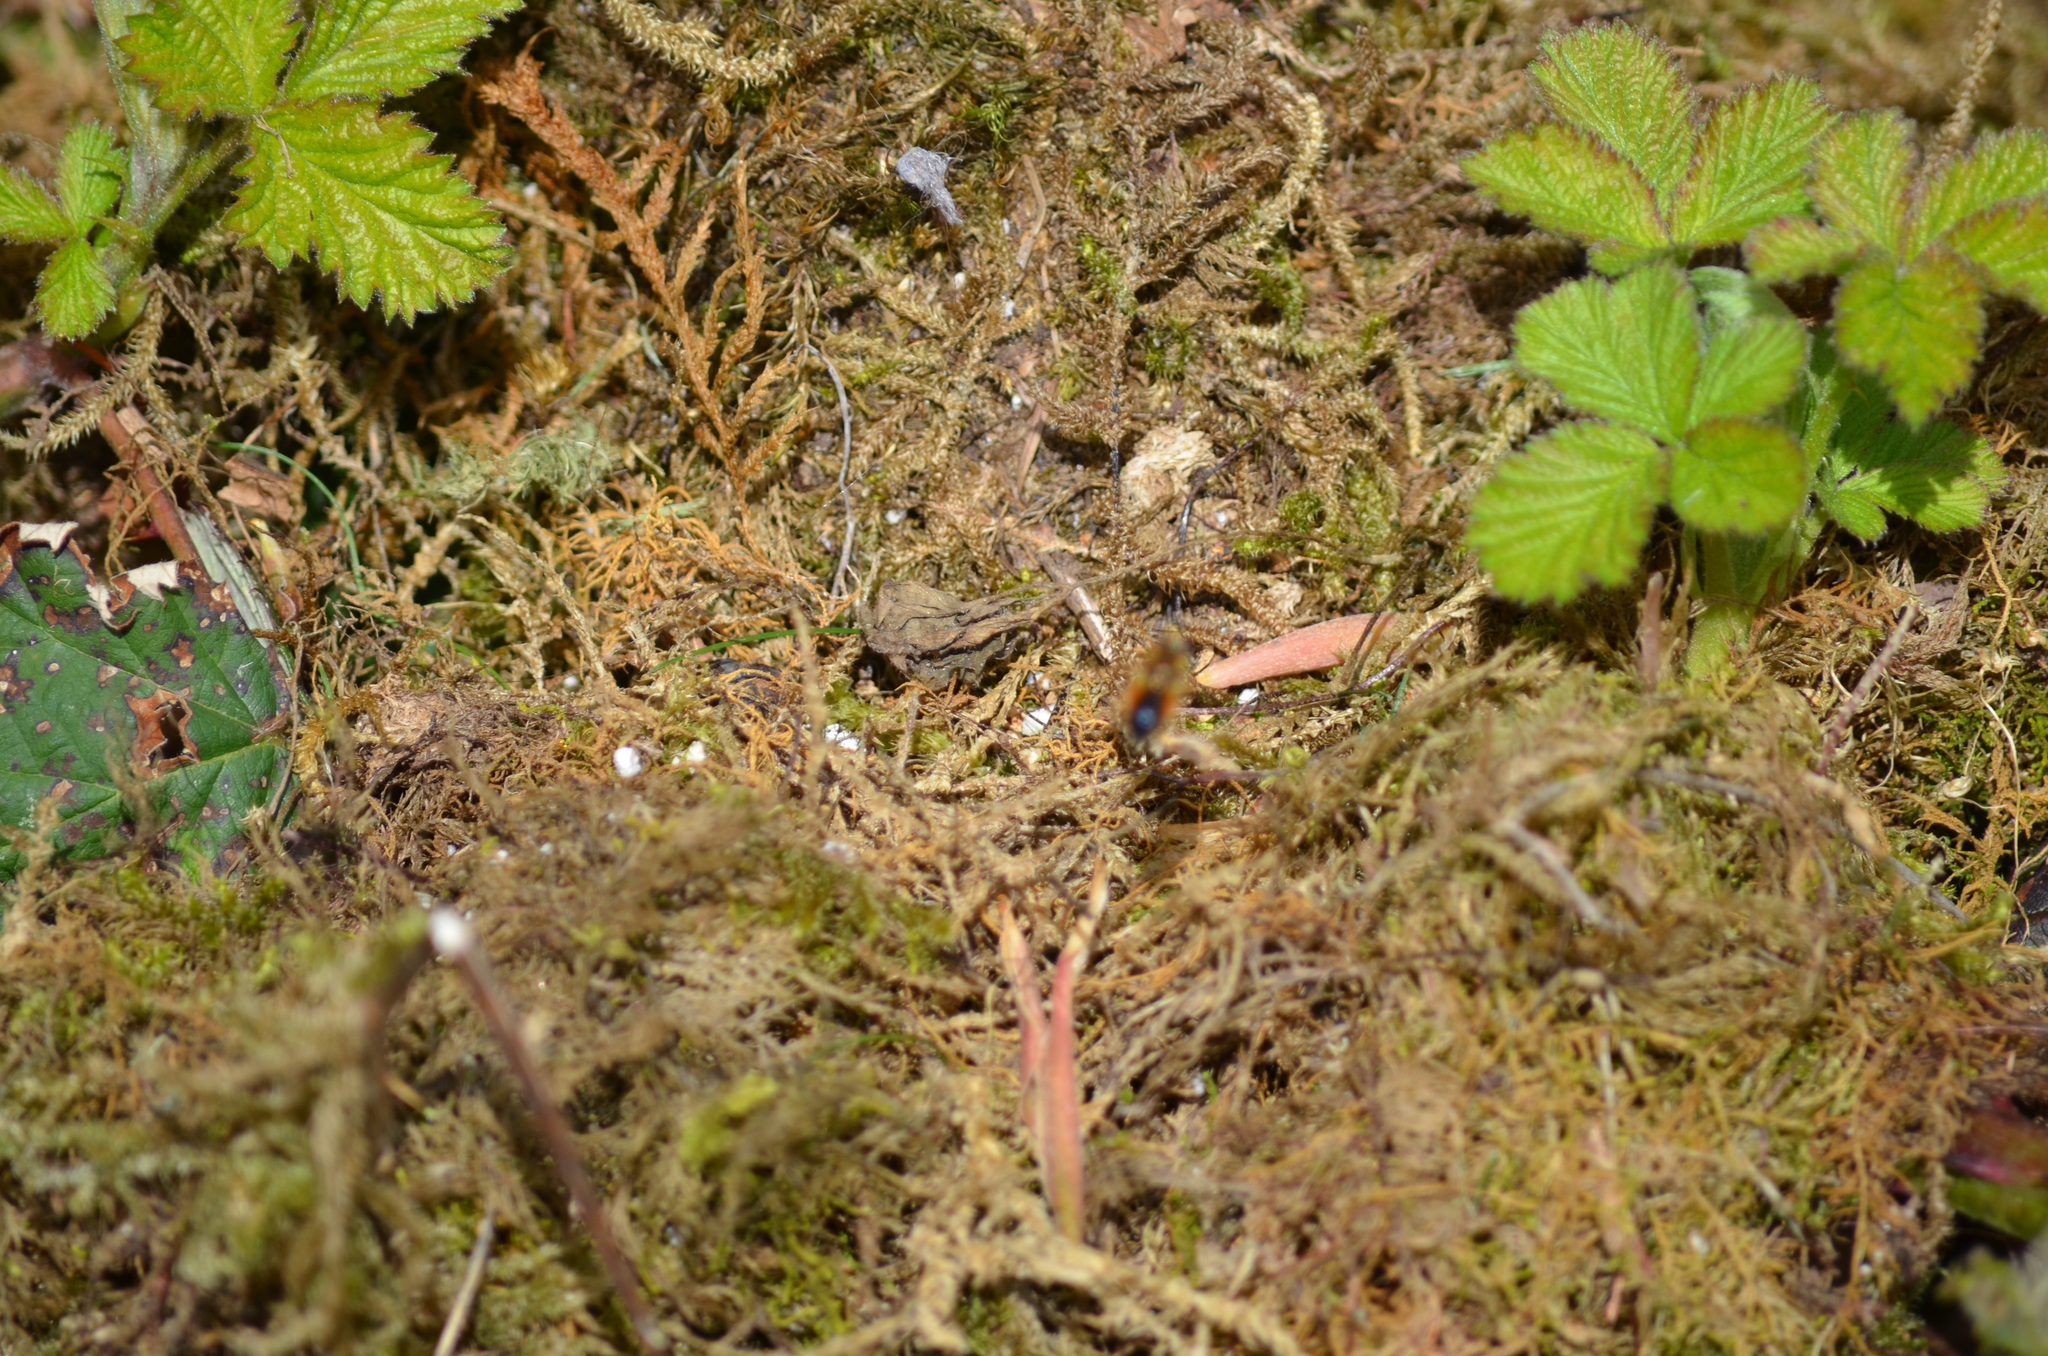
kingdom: Animalia
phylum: Arthropoda
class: Insecta
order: Diptera
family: Syrphidae
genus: Cheilosia
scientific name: Cheilosia corydon
